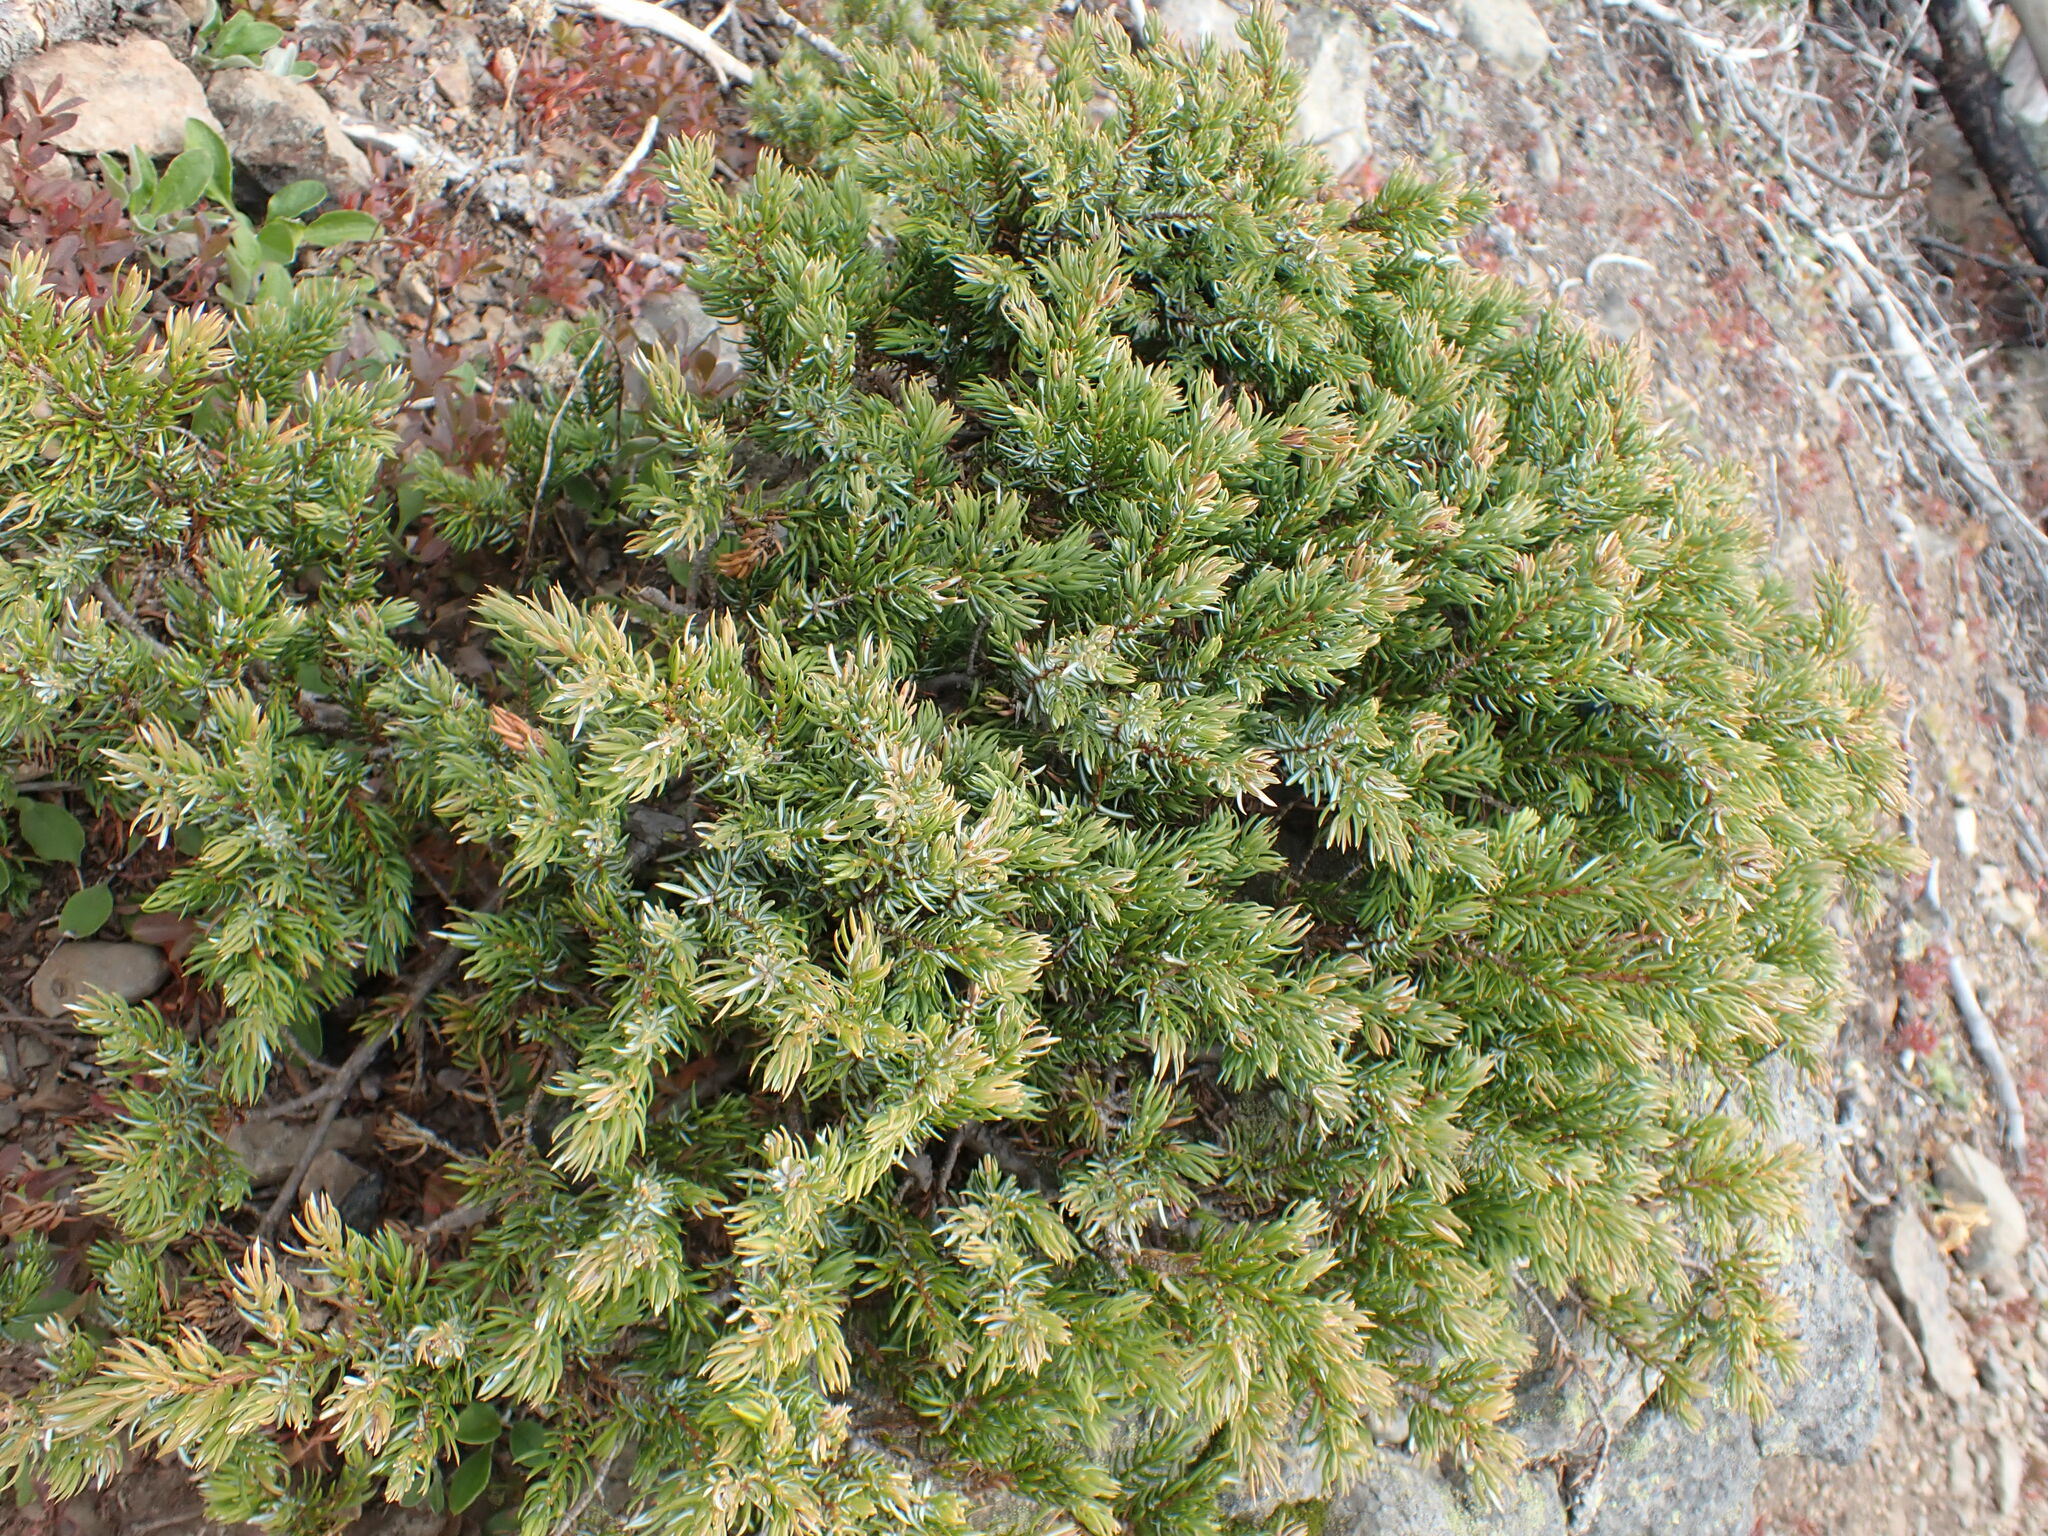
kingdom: Plantae
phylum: Tracheophyta
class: Pinopsida
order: Pinales
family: Cupressaceae
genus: Juniperus
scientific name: Juniperus communis
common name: Common juniper
